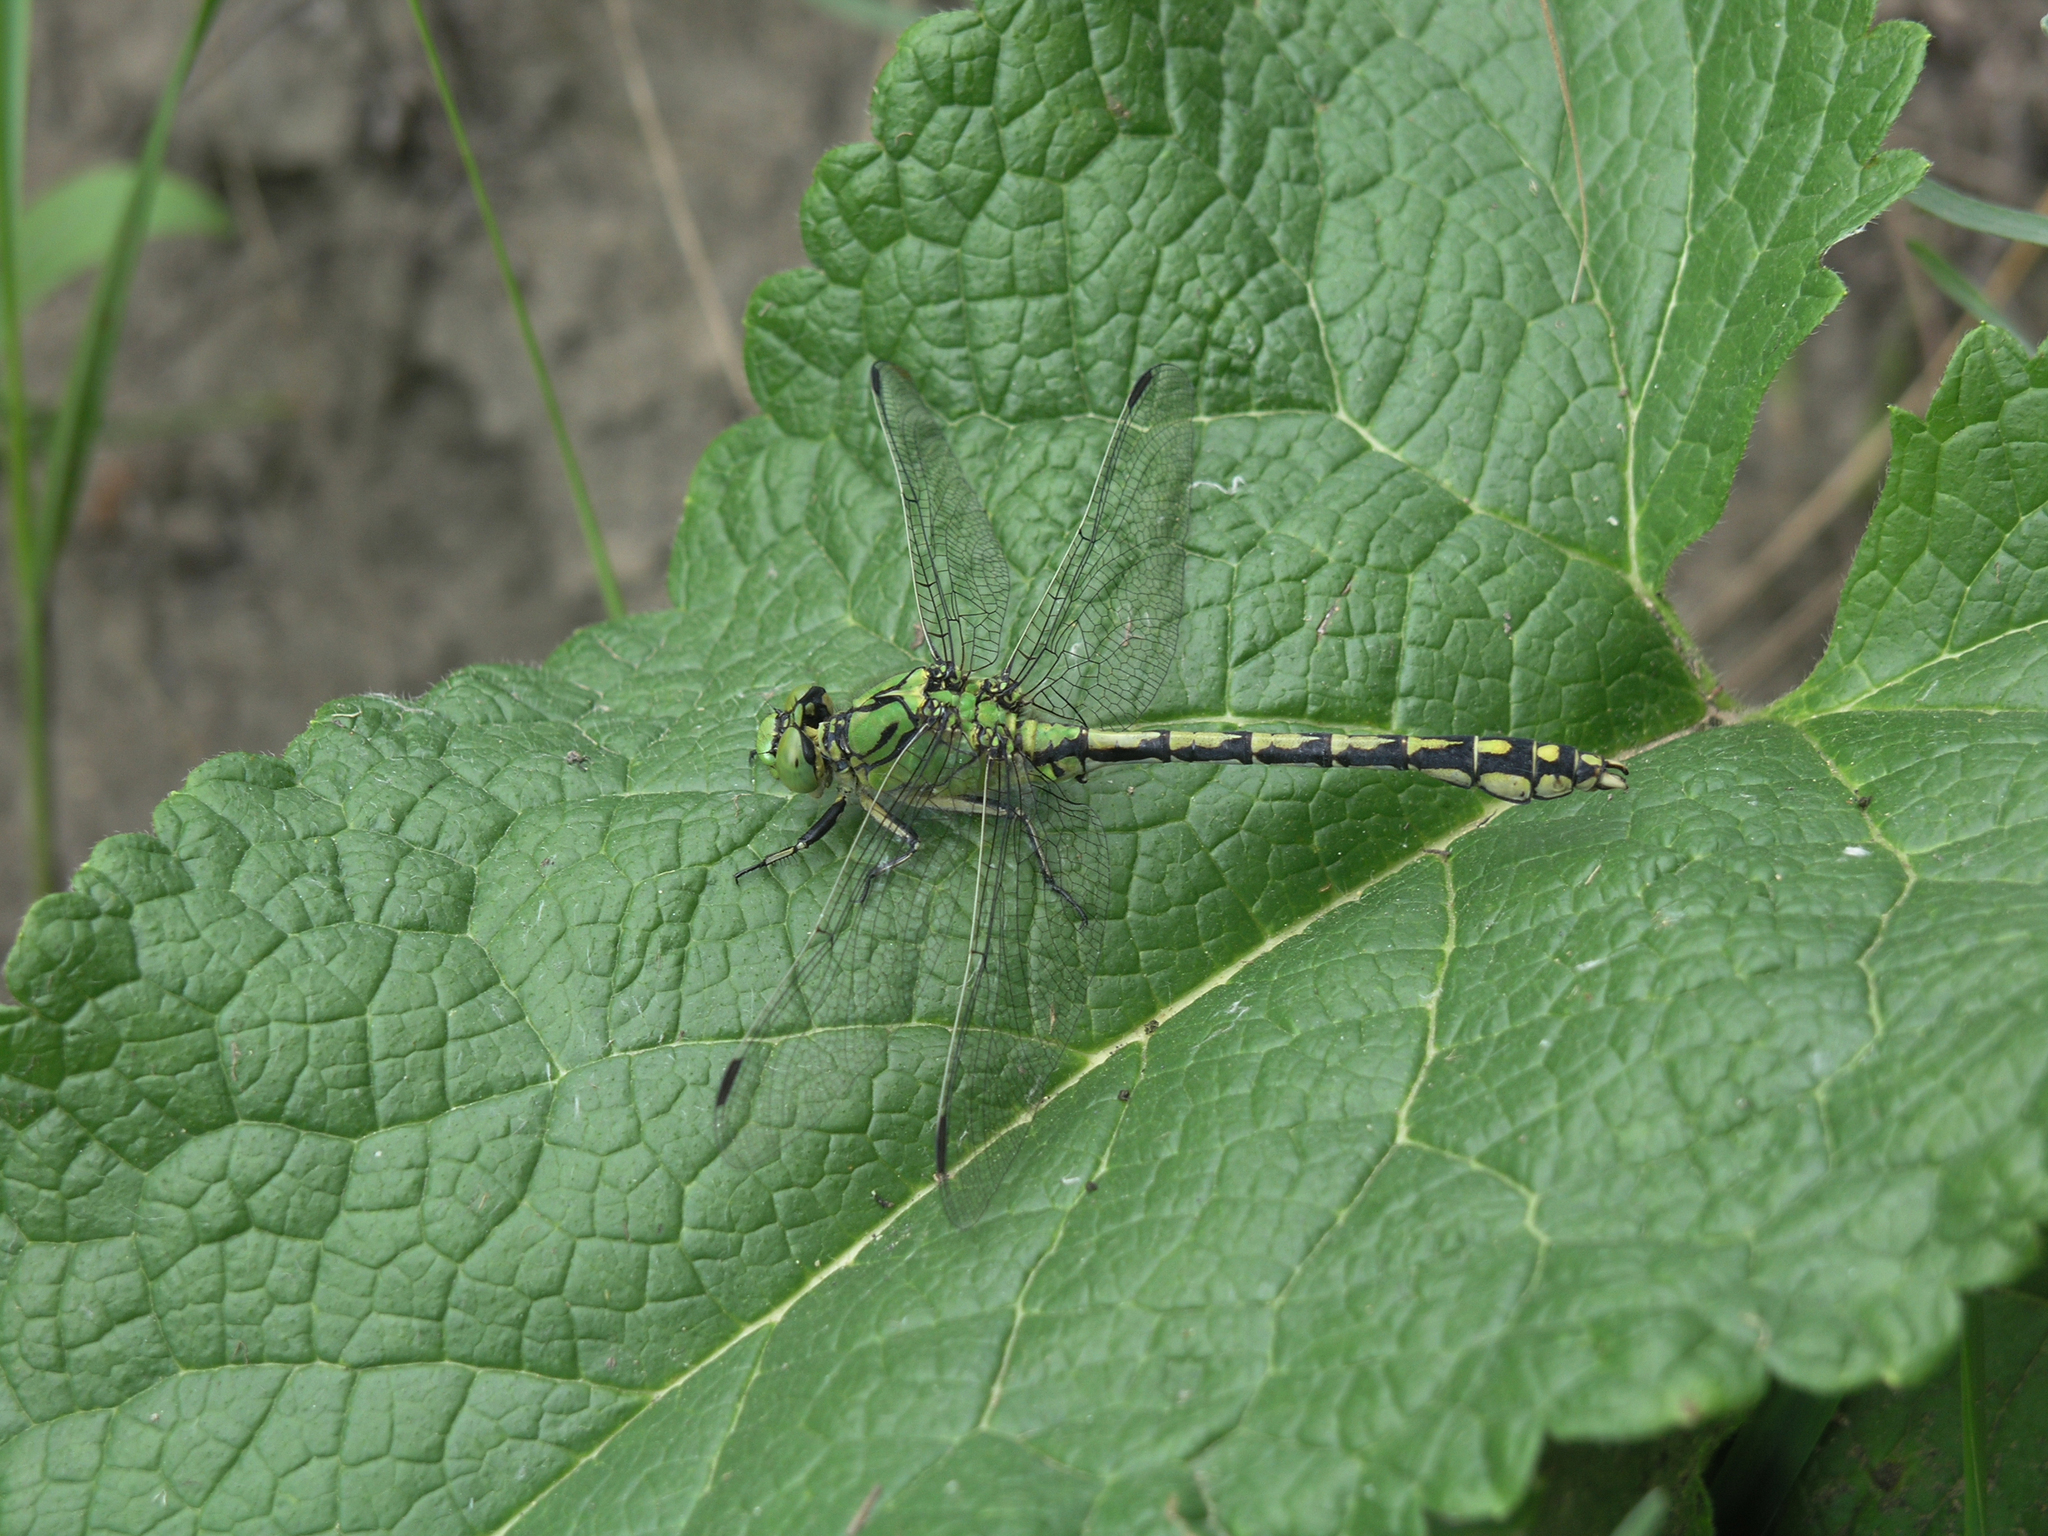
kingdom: Plantae
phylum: Tracheophyta
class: Magnoliopsida
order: Lamiales
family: Lamiaceae
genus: Phlomoides
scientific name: Phlomoides tuberosa
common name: Tuberous jerusalem sage
